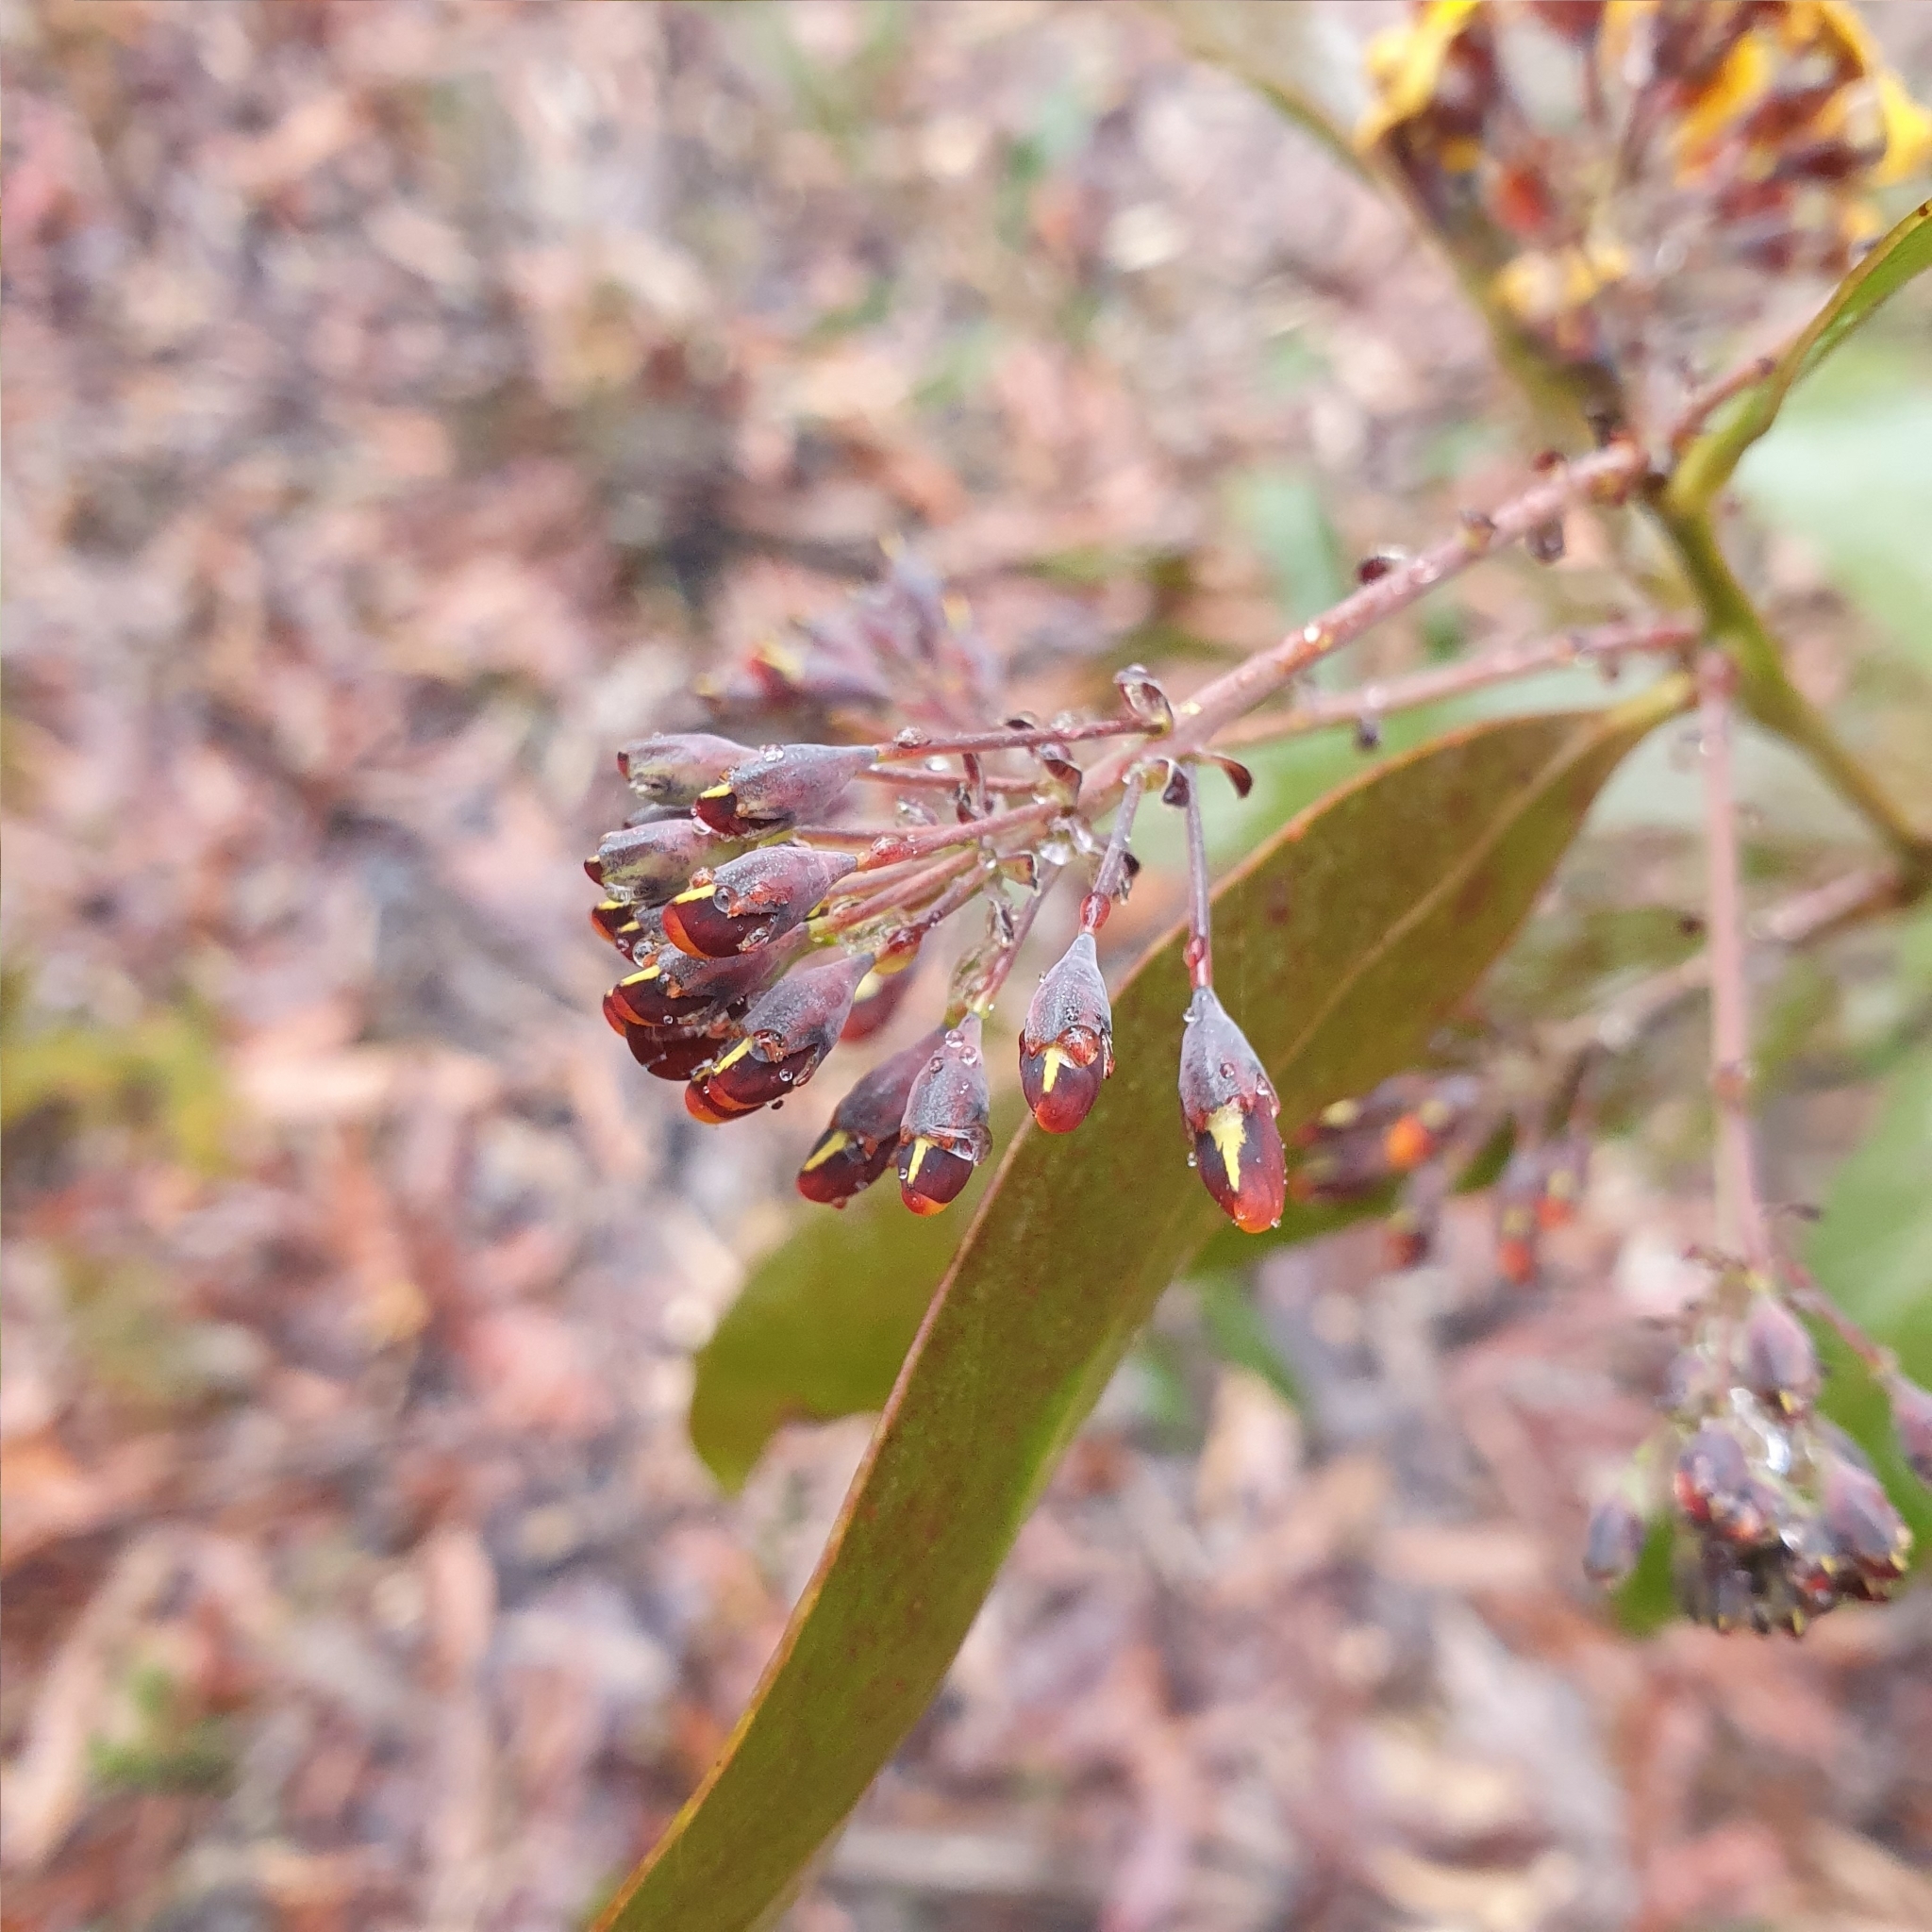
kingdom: Plantae
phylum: Tracheophyta
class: Magnoliopsida
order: Fabales
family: Fabaceae
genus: Daviesia
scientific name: Daviesia corymbosa
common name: Narrow-leaf bitter-pea
